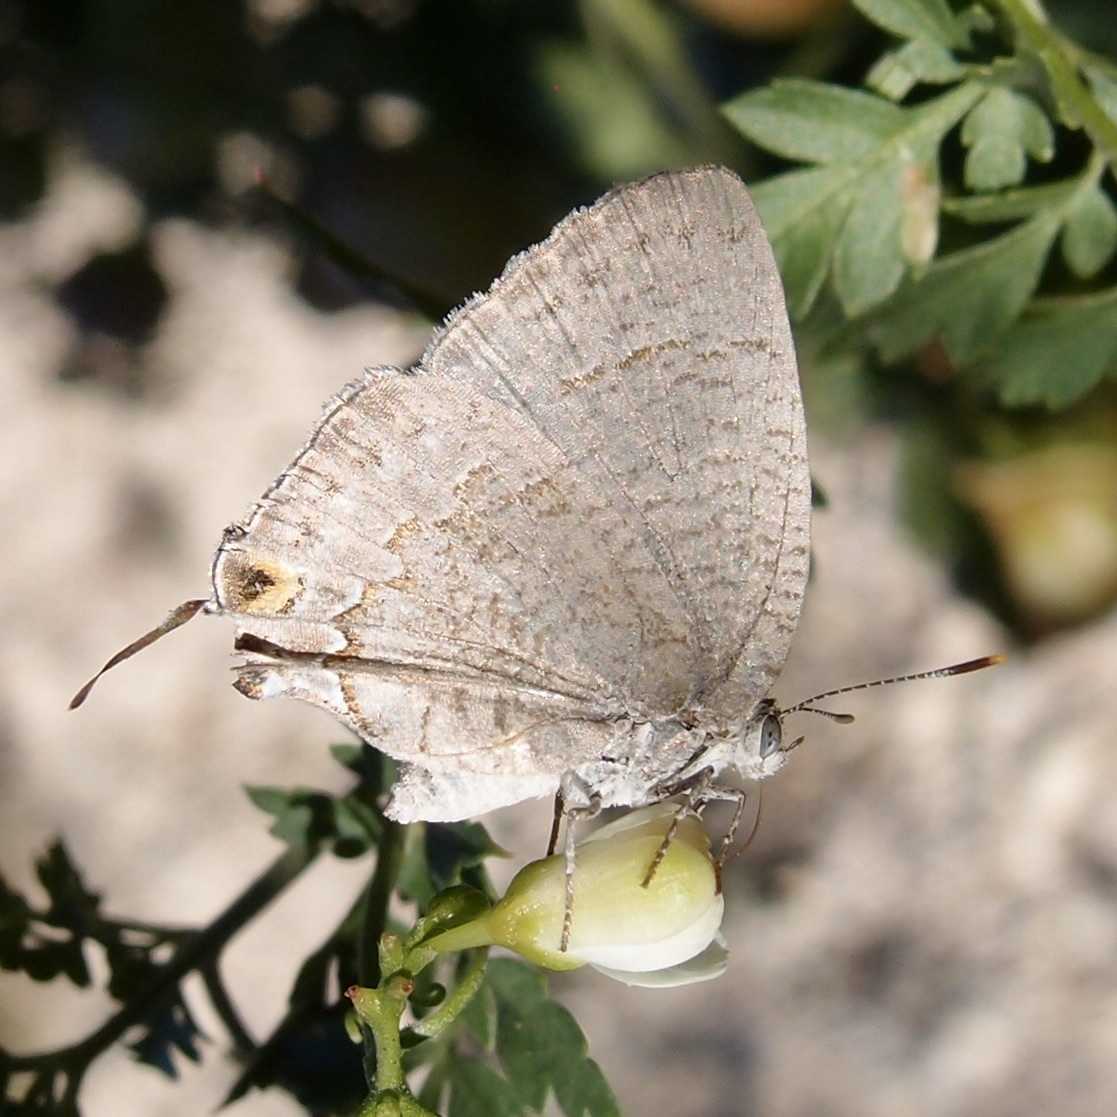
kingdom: Animalia
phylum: Arthropoda
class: Insecta
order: Lepidoptera
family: Lycaenidae
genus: Hypostrymon
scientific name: Hypostrymon critola
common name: Sonoran hairstreak
